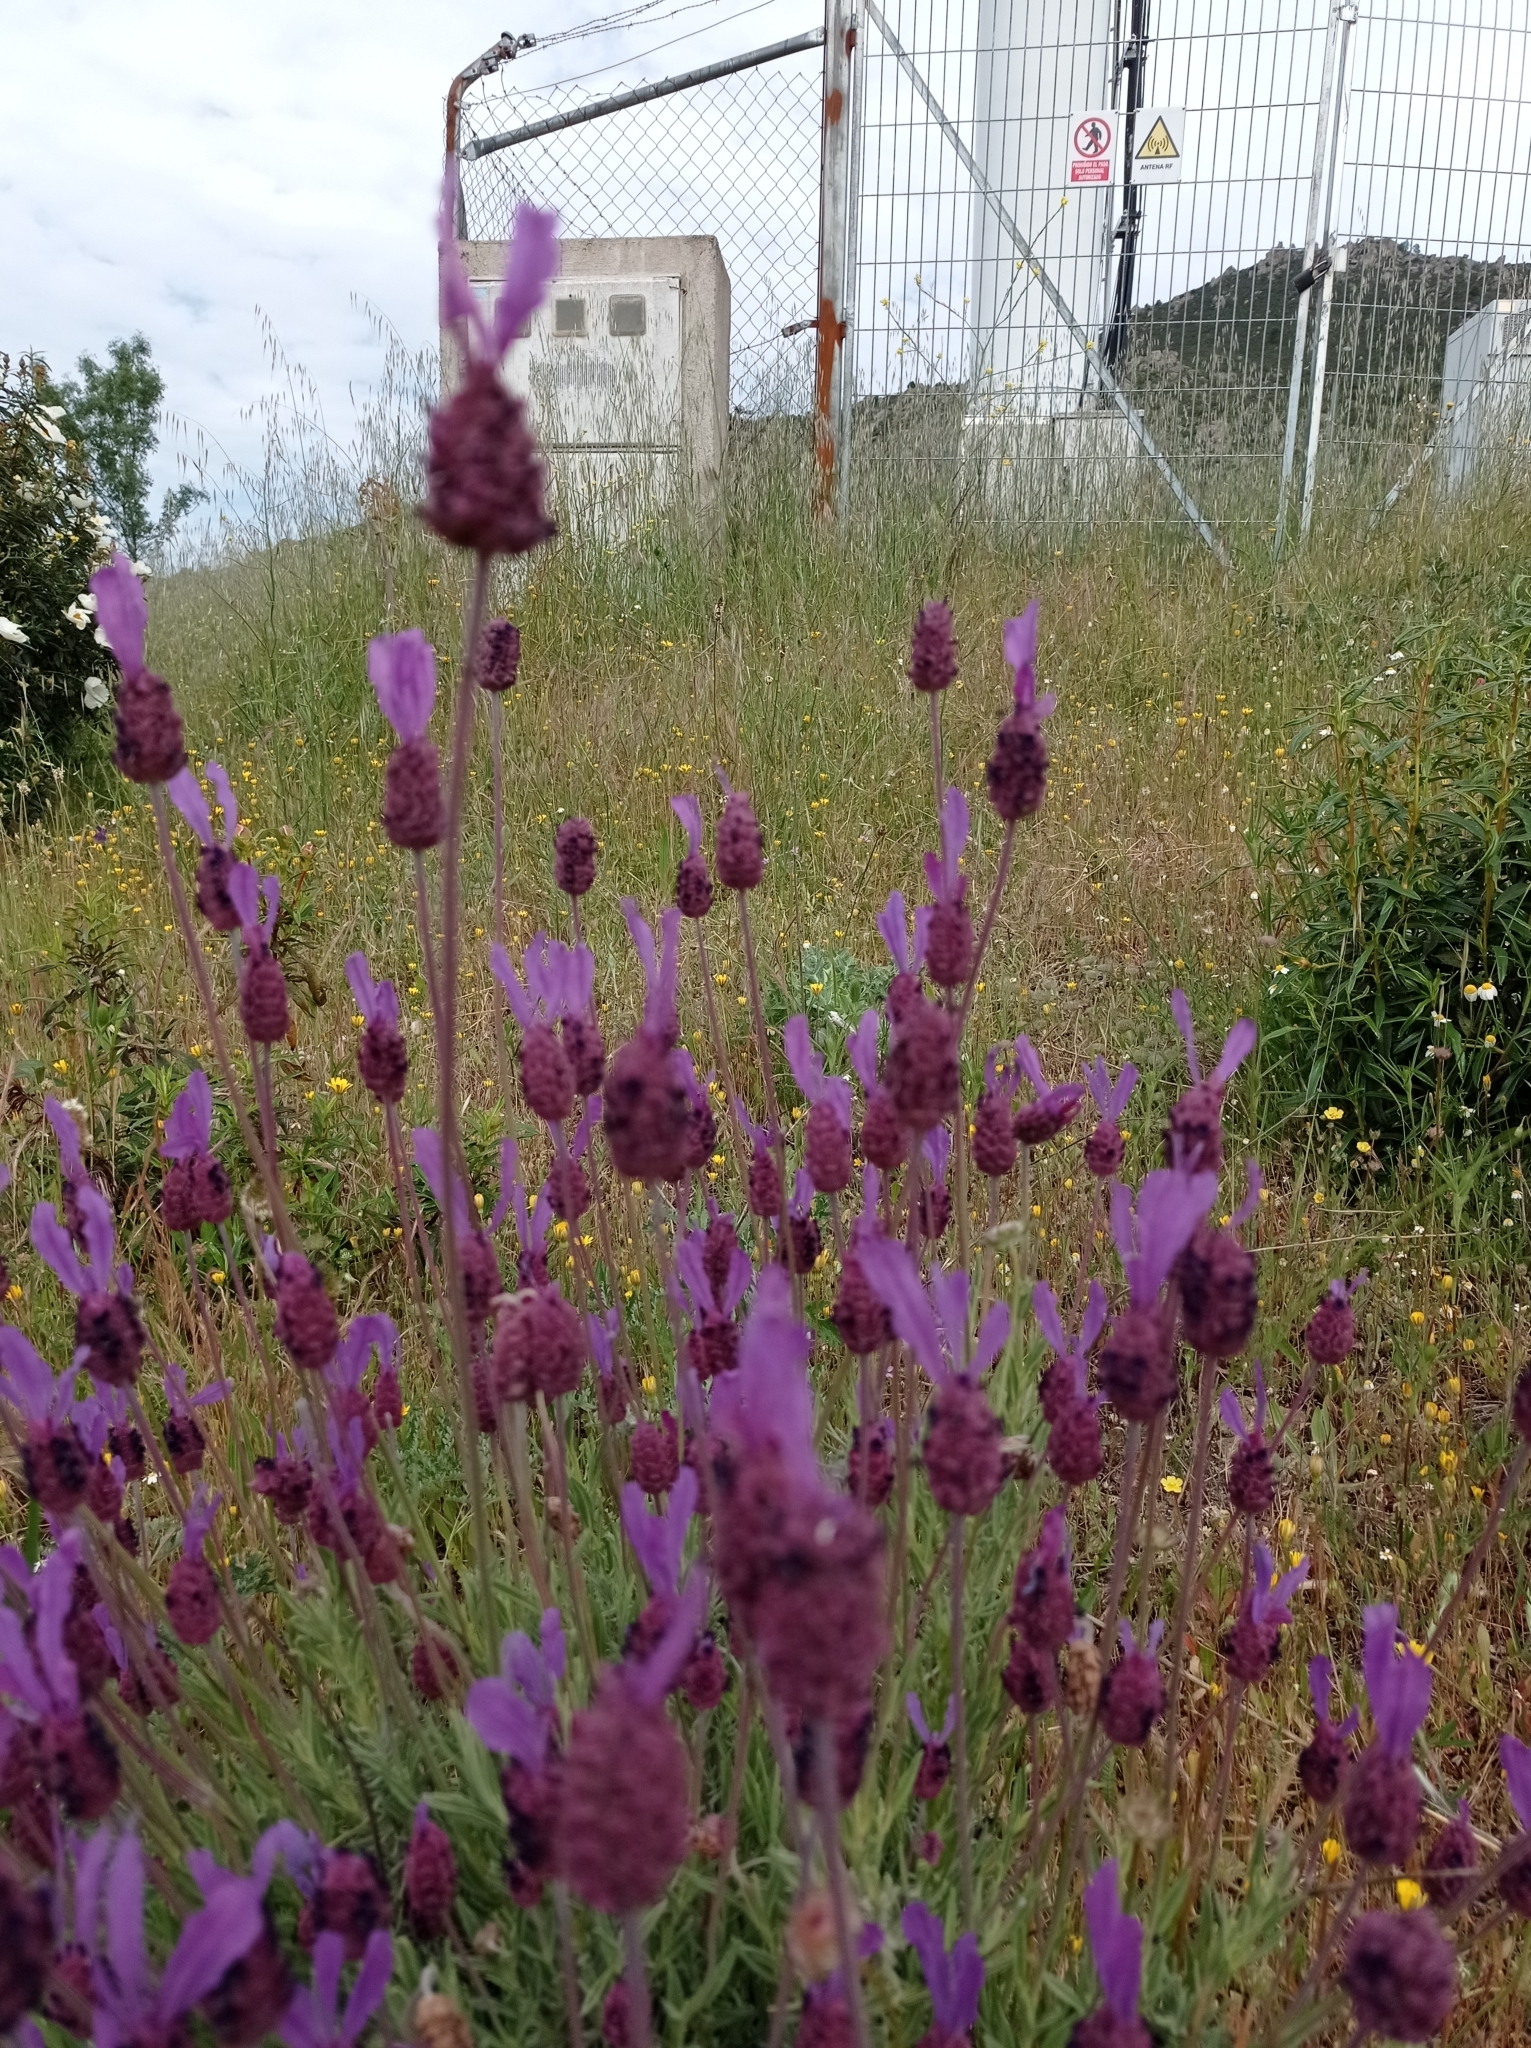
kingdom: Plantae
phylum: Tracheophyta
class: Magnoliopsida
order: Lamiales
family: Lamiaceae
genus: Lavandula
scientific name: Lavandula pedunculata
